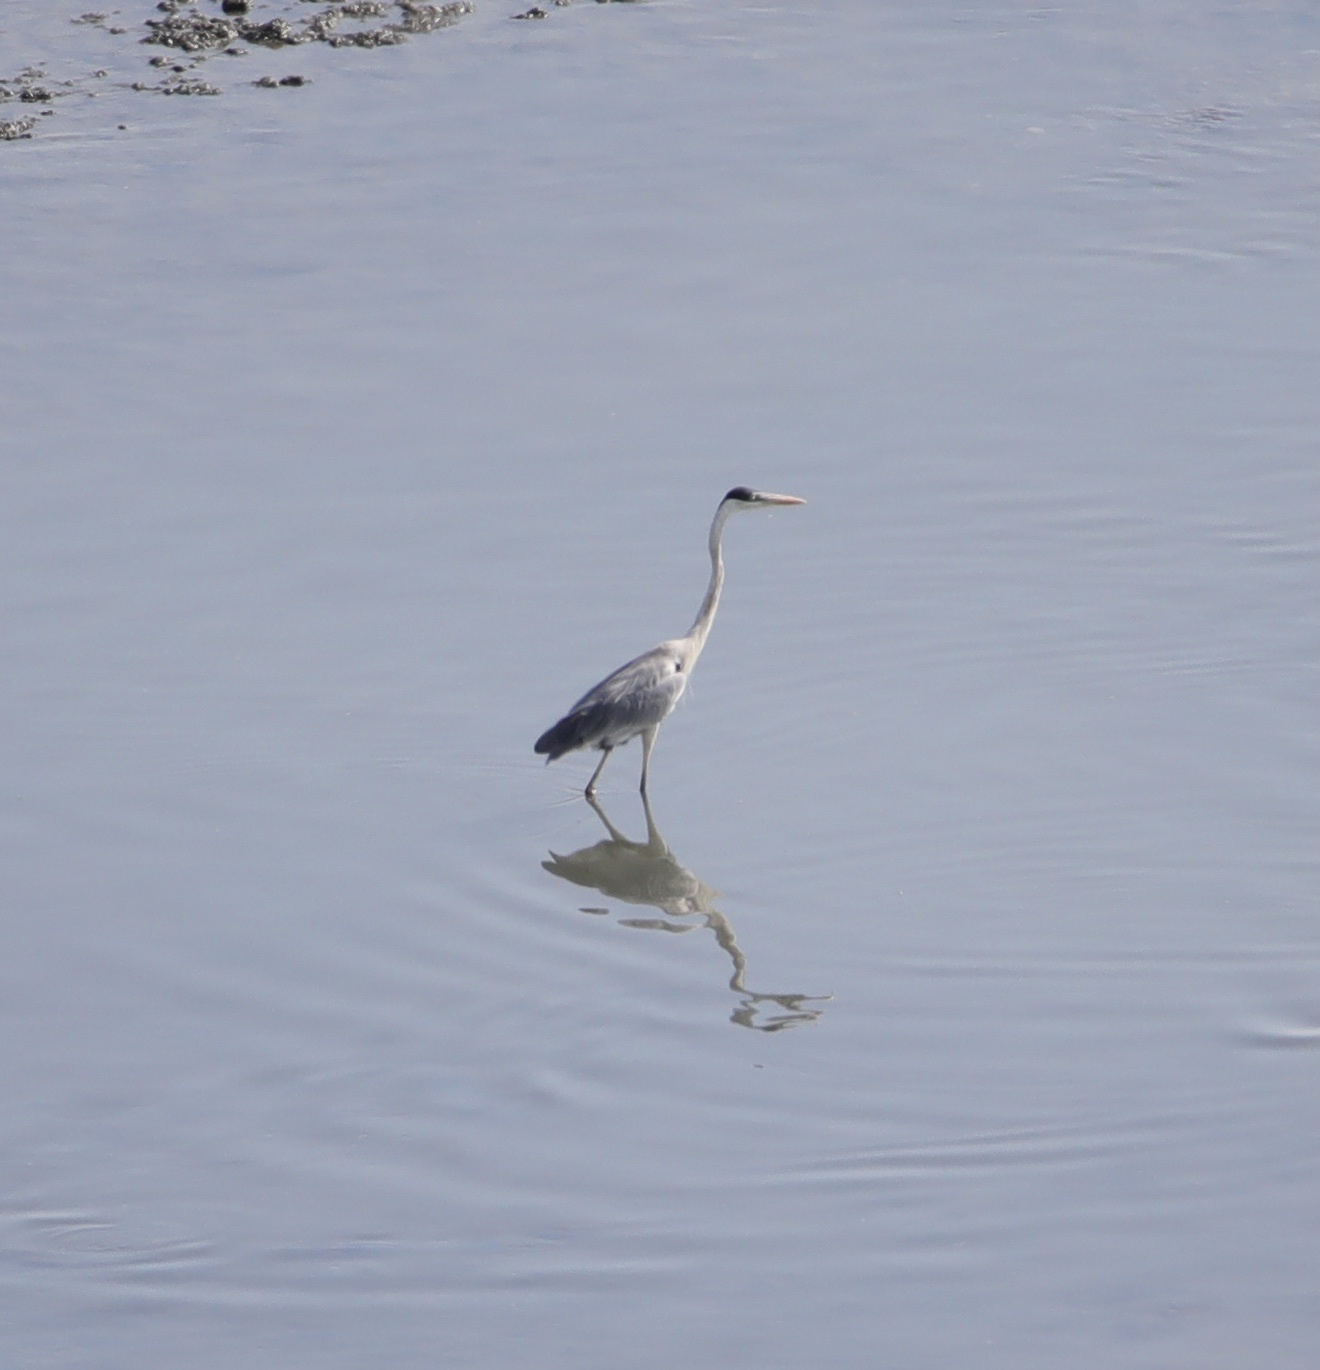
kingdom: Animalia
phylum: Chordata
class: Aves
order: Pelecaniformes
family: Ardeidae
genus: Ardea
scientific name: Ardea cocoi
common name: Cocoi heron
